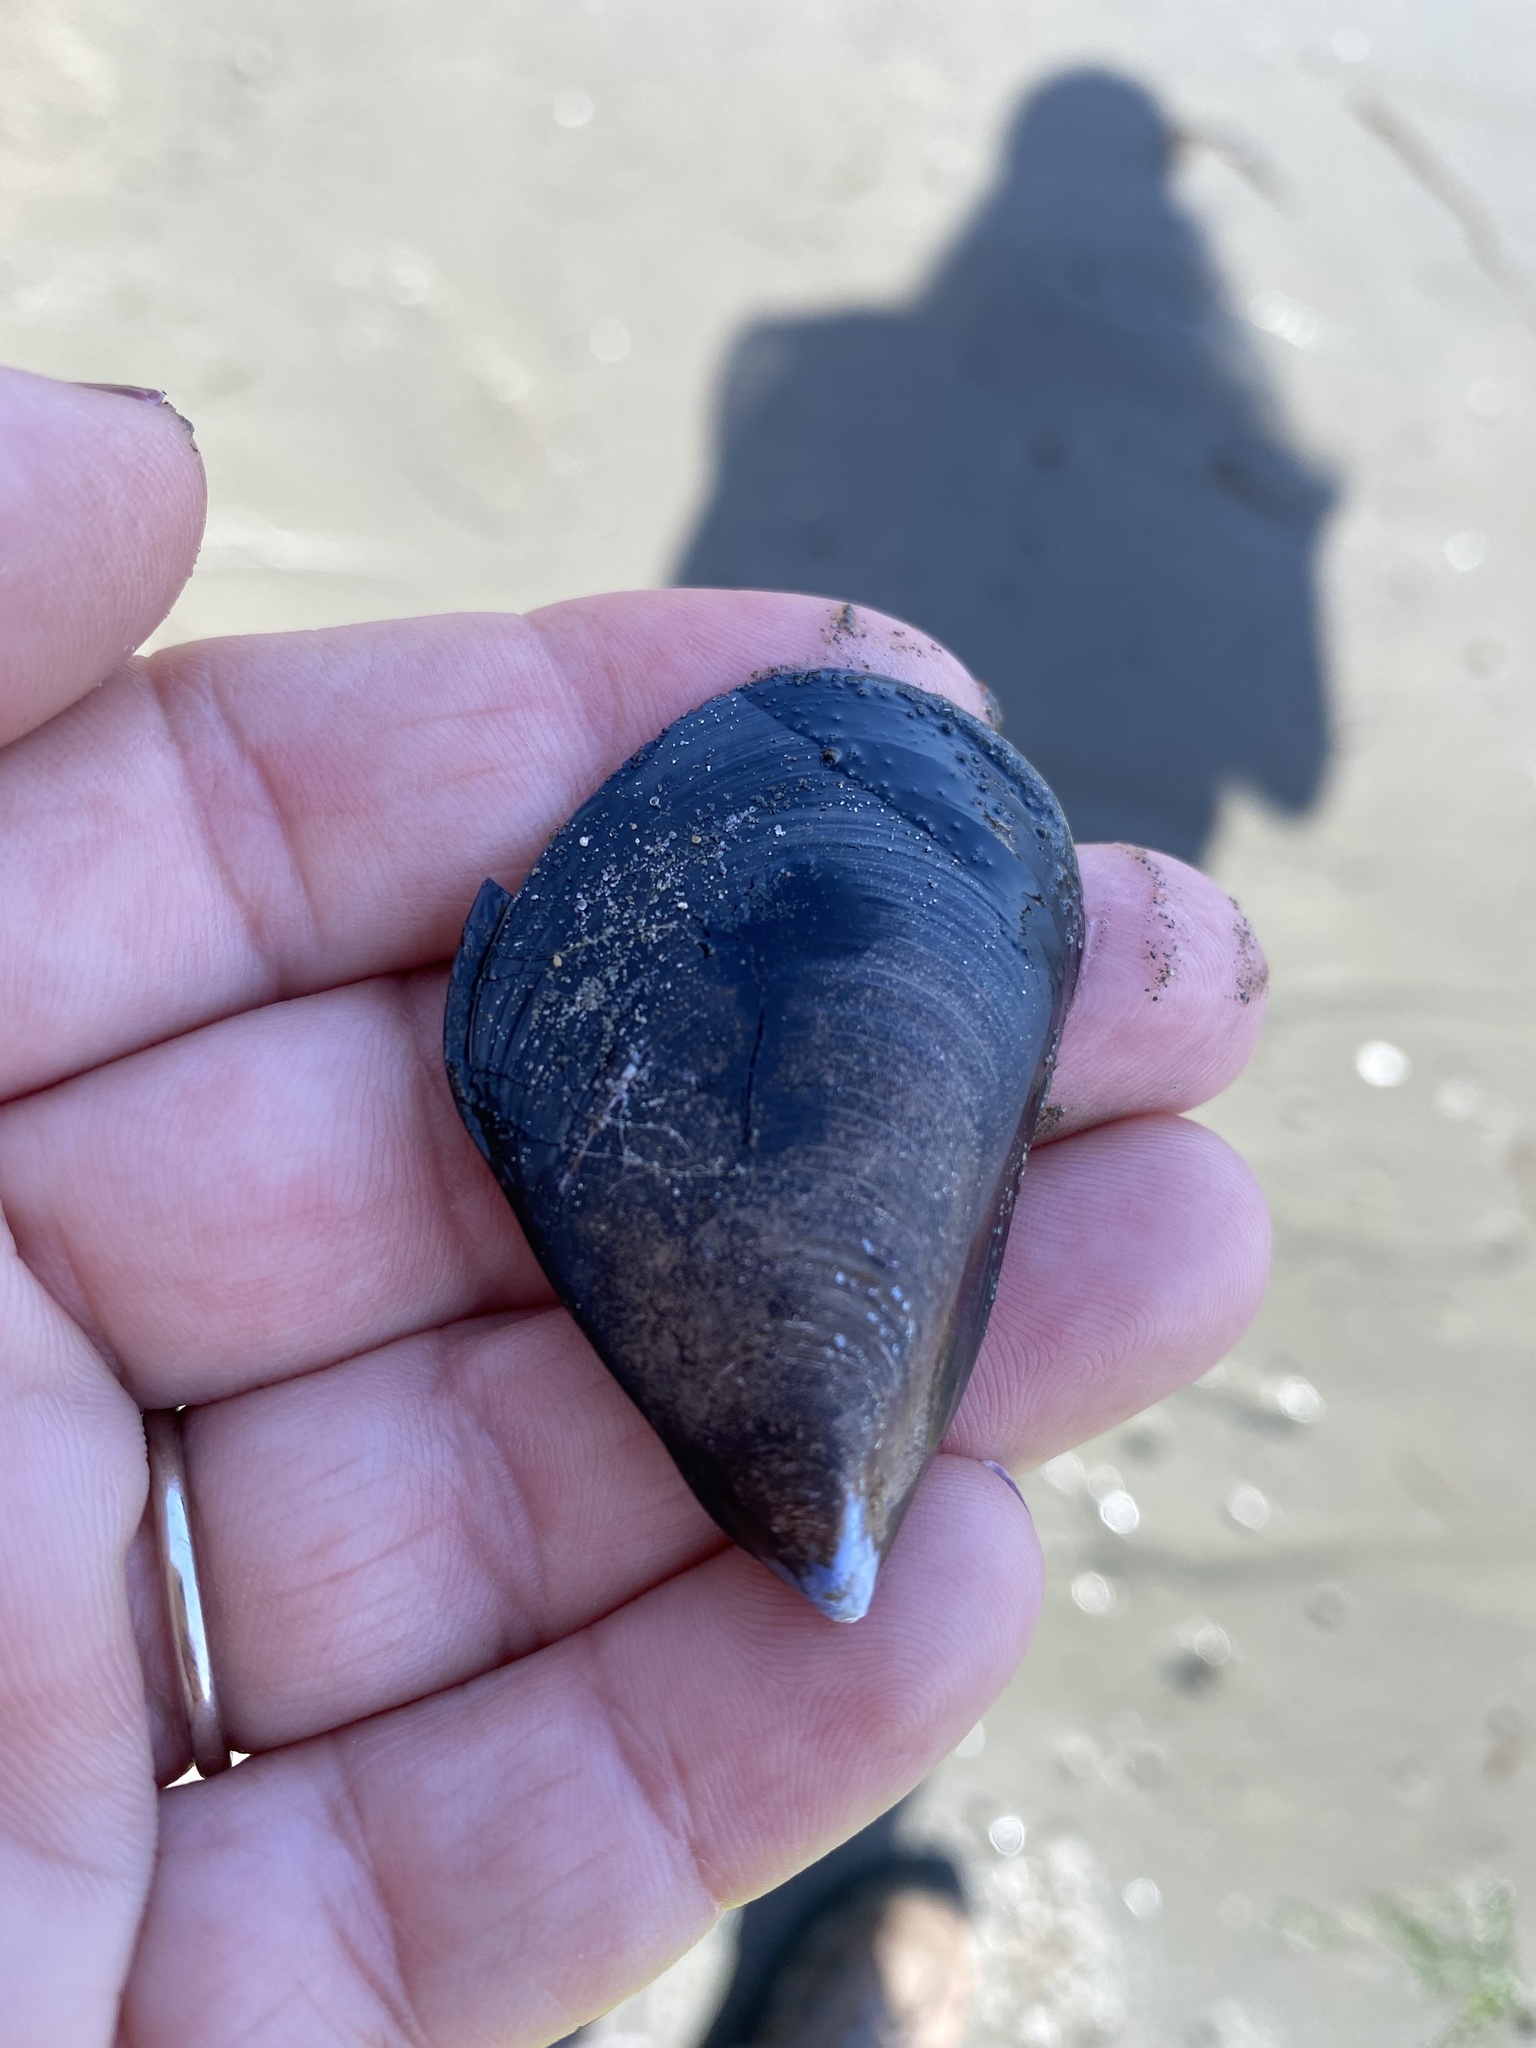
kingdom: Animalia
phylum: Mollusca
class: Bivalvia
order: Mytilida
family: Mytilidae
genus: Mytilus
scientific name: Mytilus
